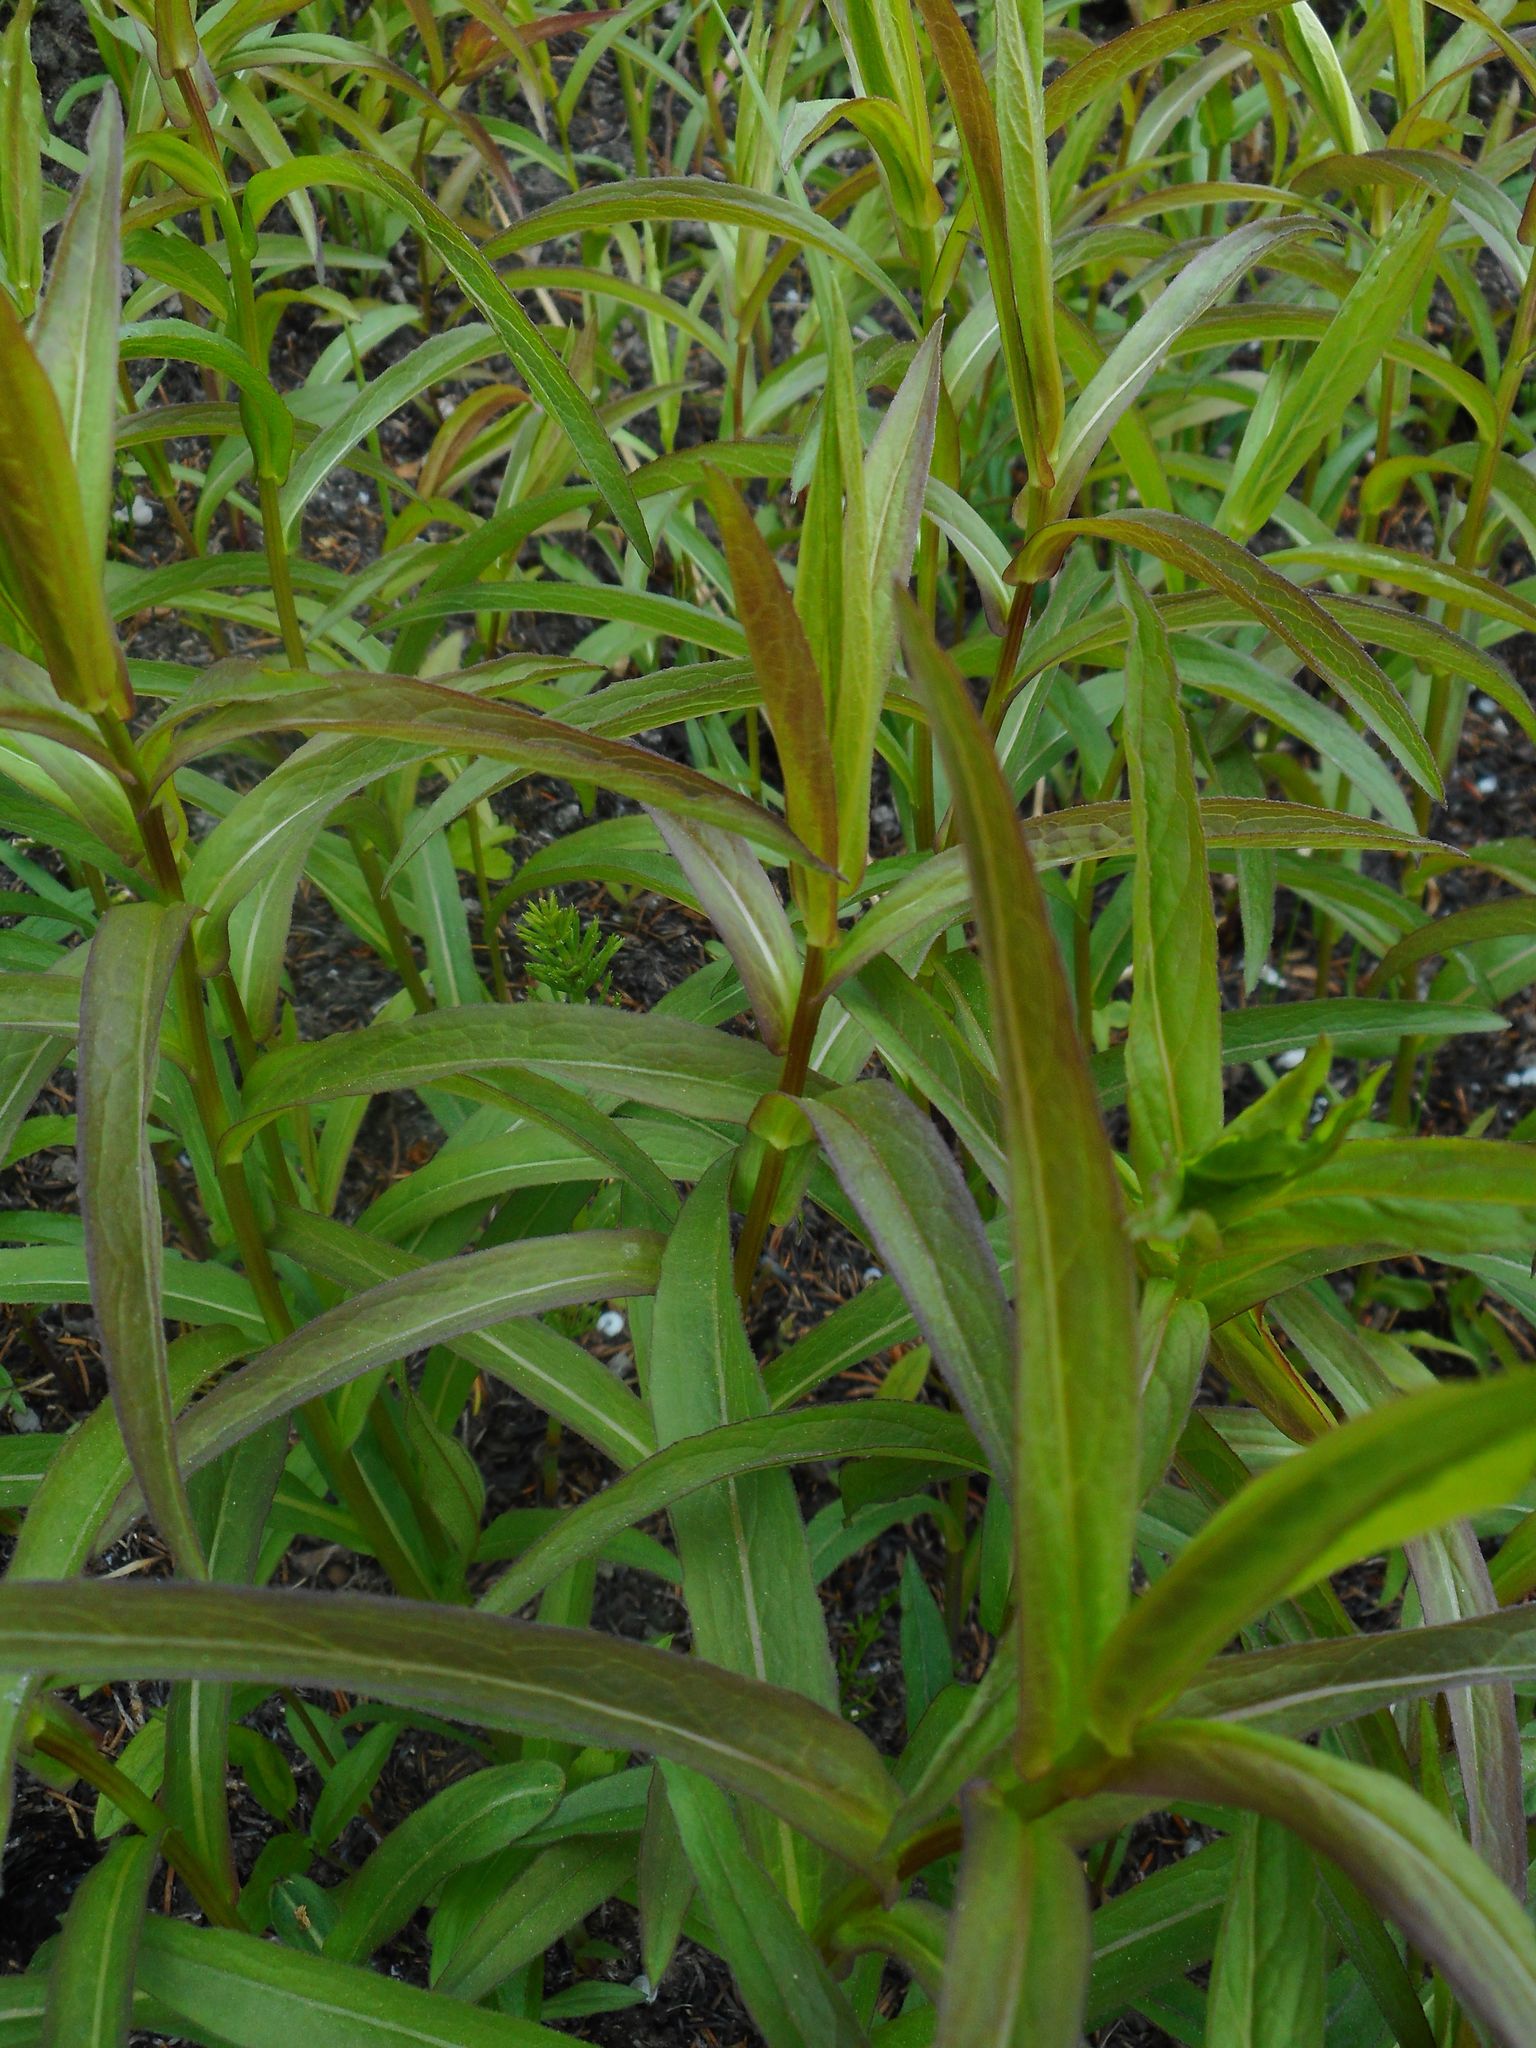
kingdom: Plantae
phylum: Tracheophyta
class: Magnoliopsida
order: Asterales
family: Asteraceae
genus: Pentanema
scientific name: Pentanema salicinum
